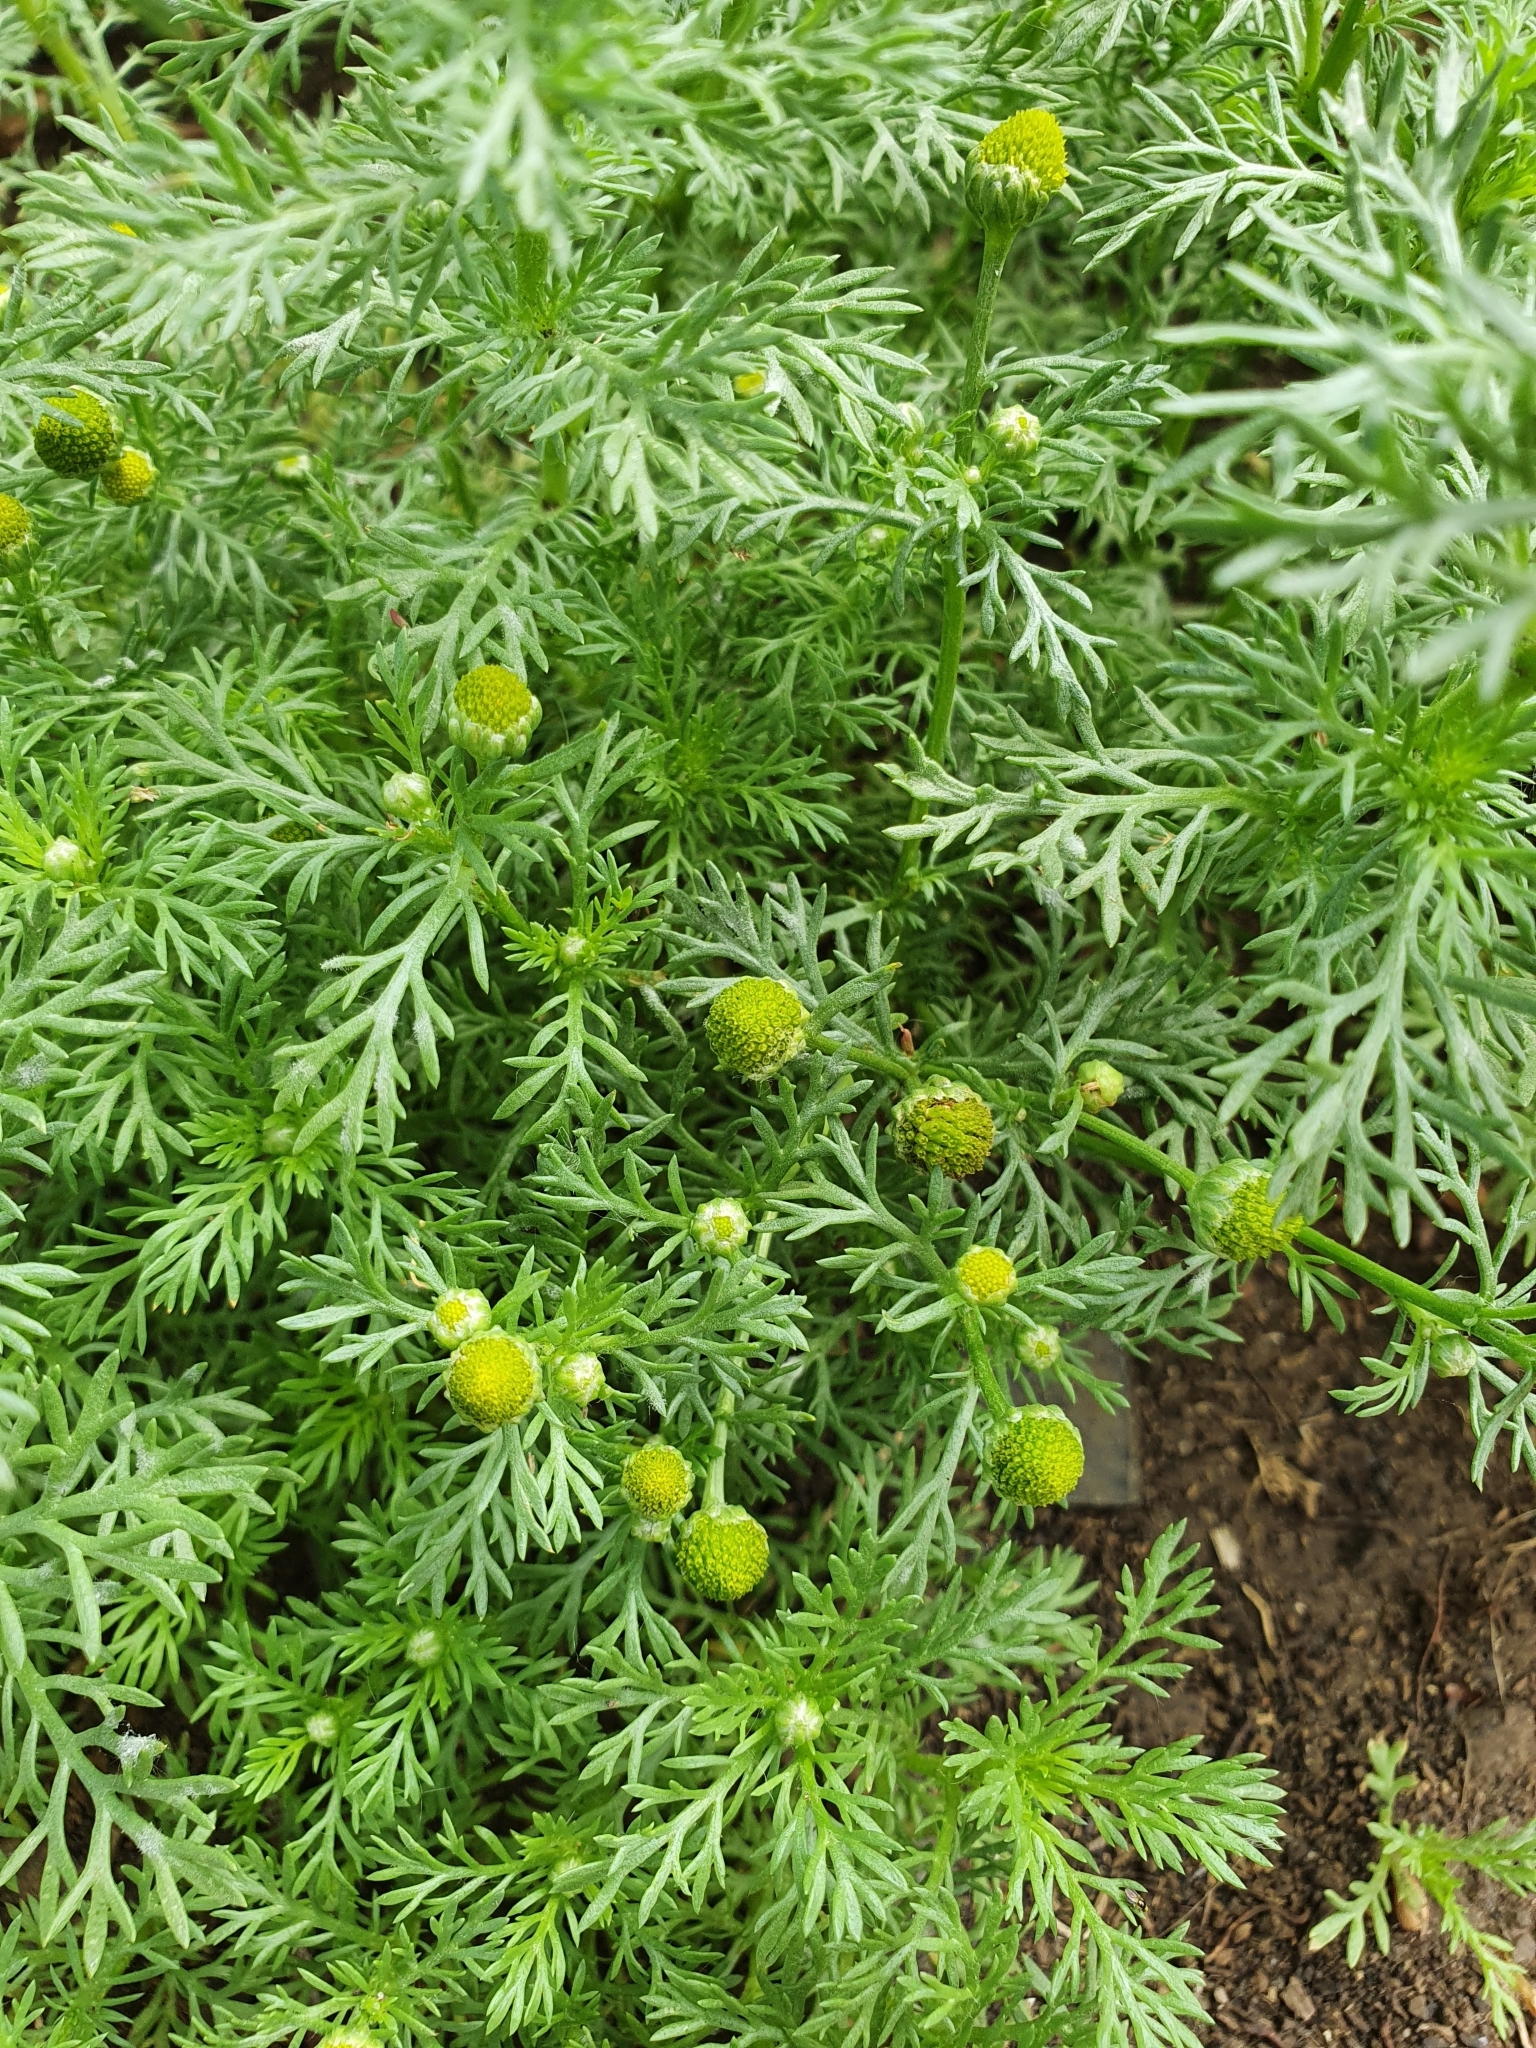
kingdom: Plantae
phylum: Tracheophyta
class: Magnoliopsida
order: Asterales
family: Asteraceae
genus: Matricaria
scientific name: Matricaria discoidea
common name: Disc mayweed
